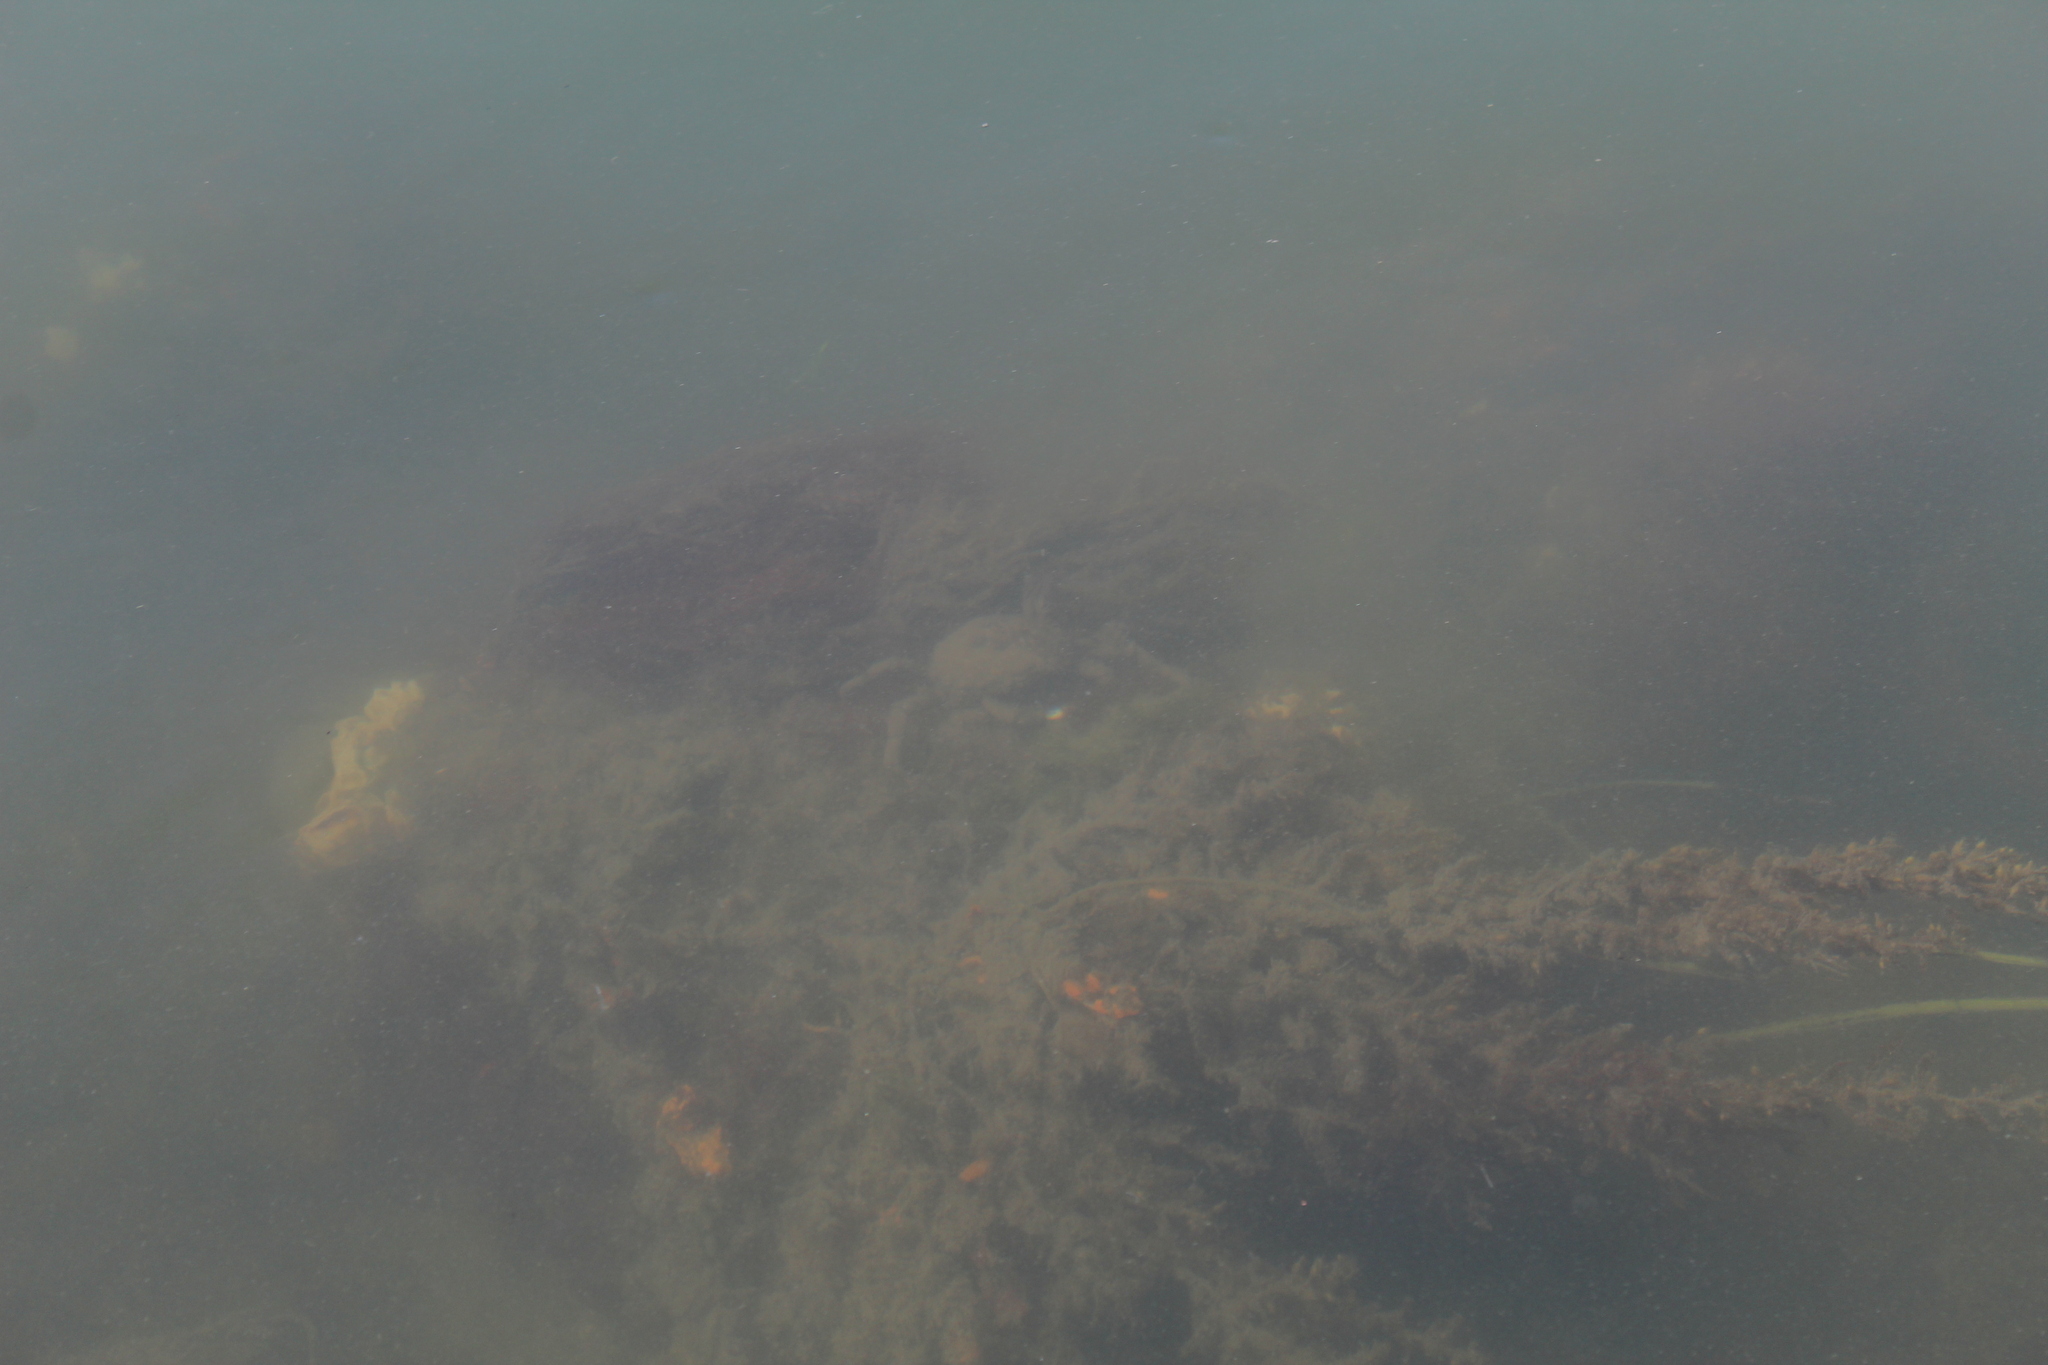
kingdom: Animalia
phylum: Arthropoda
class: Malacostraca
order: Decapoda
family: Epialtidae
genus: Libinia
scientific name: Libinia
